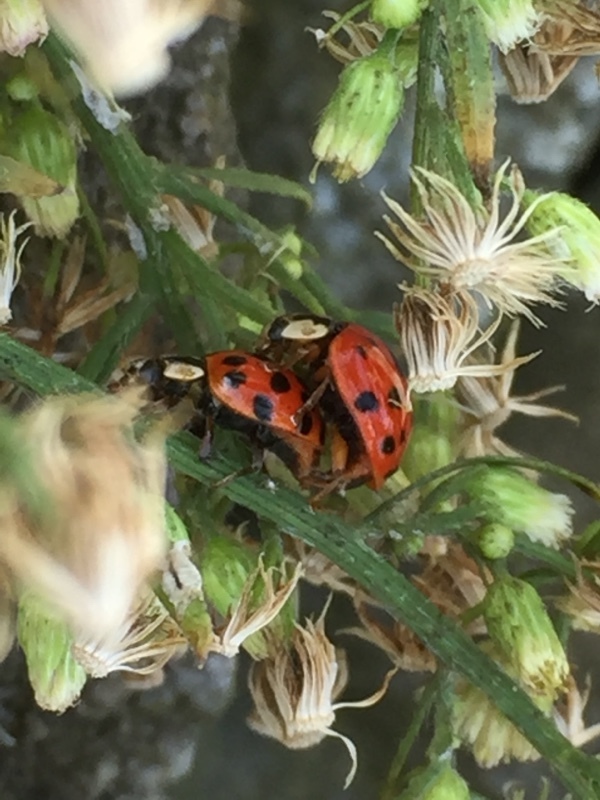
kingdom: Animalia
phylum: Arthropoda
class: Insecta
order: Coleoptera
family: Coccinellidae
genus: Harmonia
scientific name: Harmonia axyridis
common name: Harlequin ladybird
